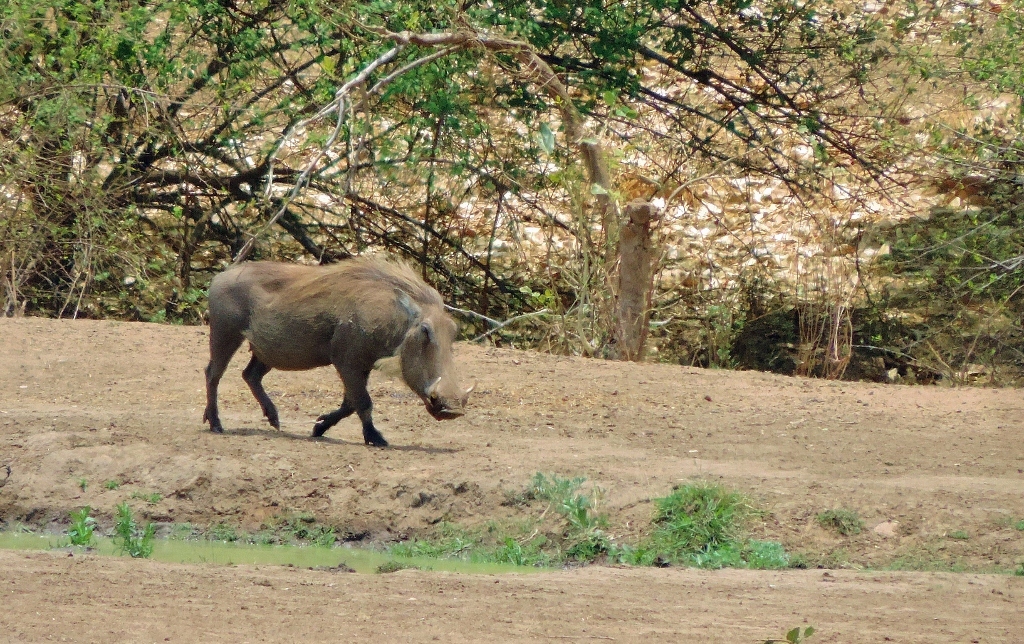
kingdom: Animalia
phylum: Chordata
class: Mammalia
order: Artiodactyla
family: Suidae
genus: Phacochoerus
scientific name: Phacochoerus africanus
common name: Common warthog
